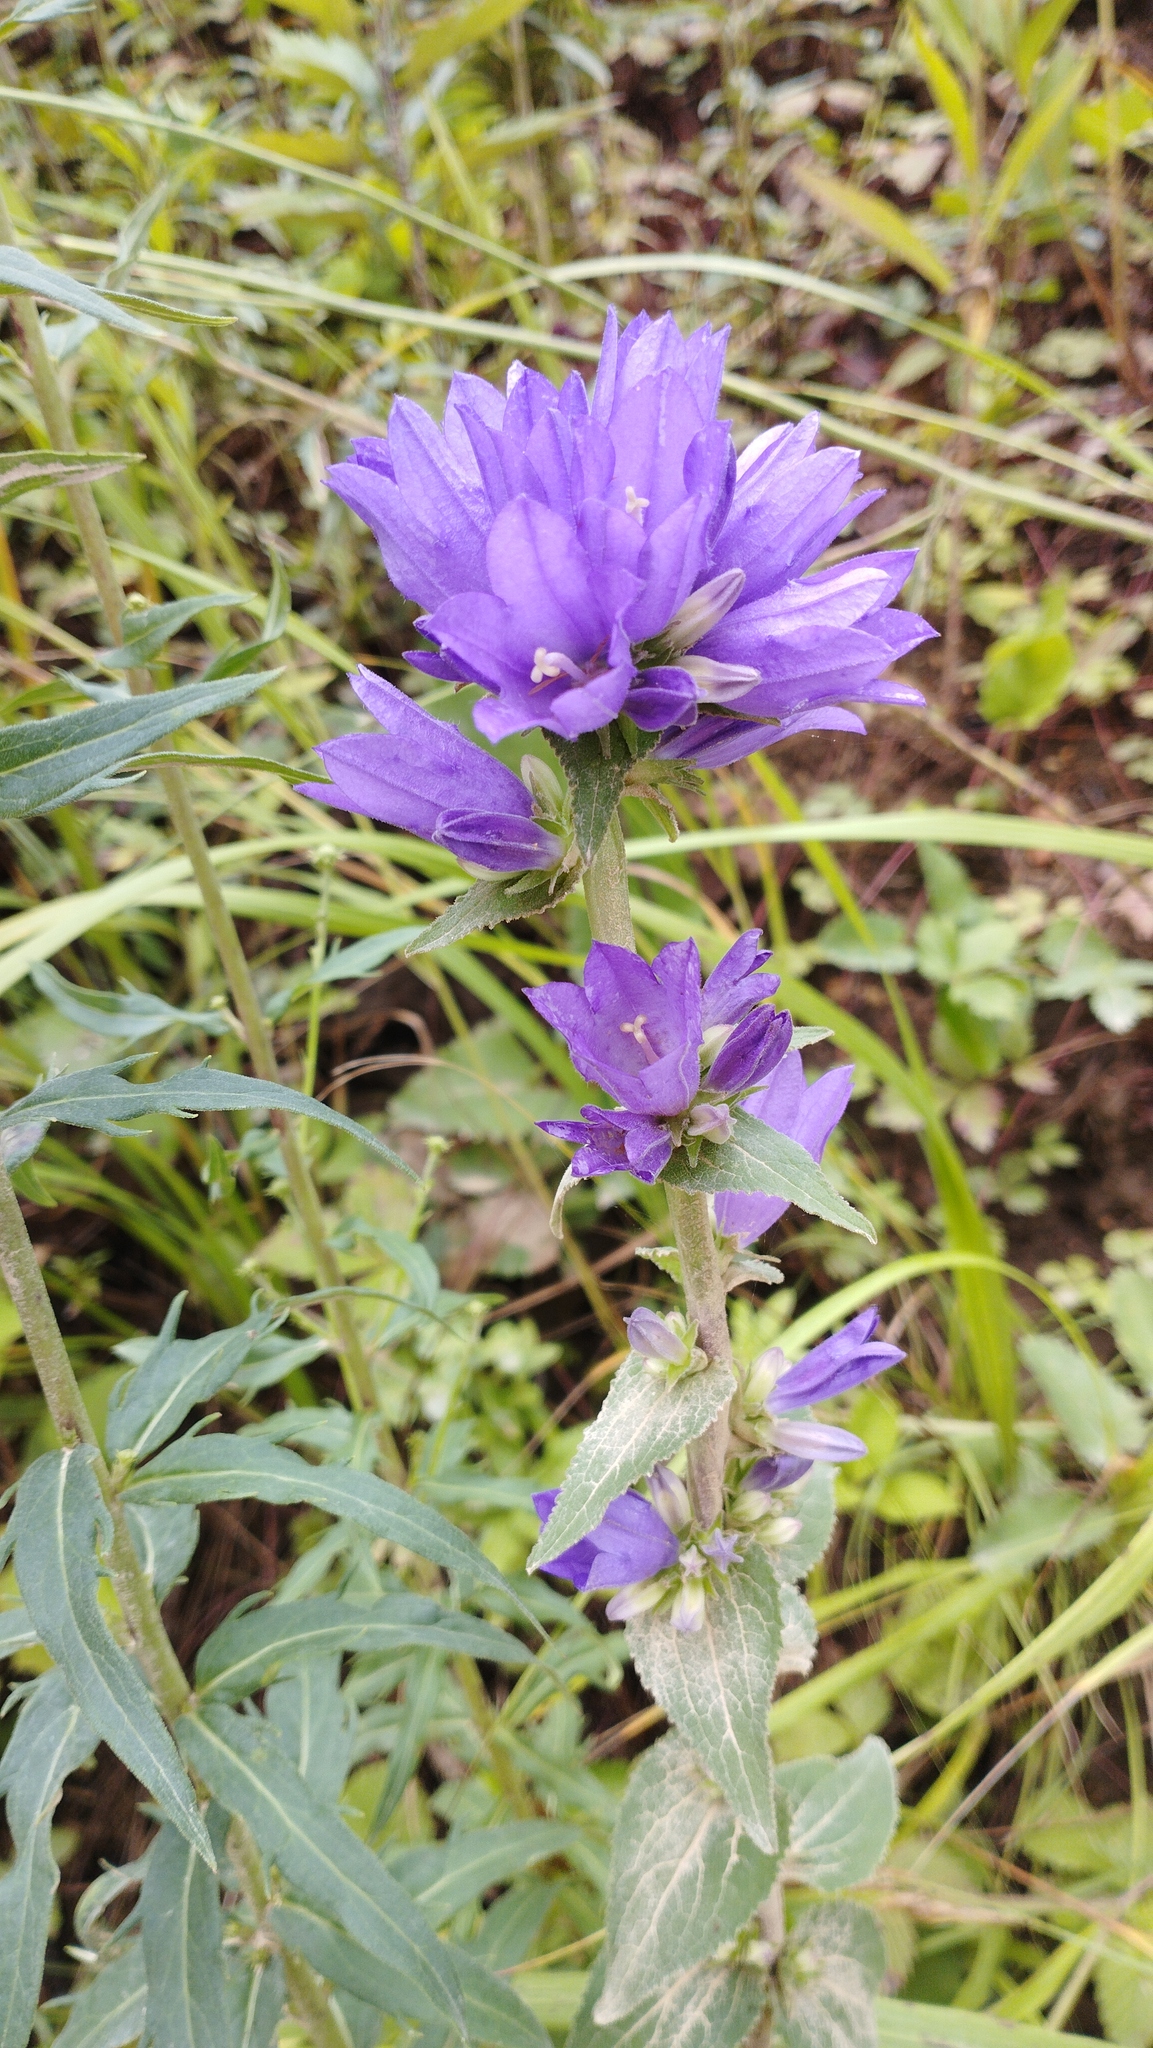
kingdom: Plantae
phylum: Tracheophyta
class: Magnoliopsida
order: Asterales
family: Campanulaceae
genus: Campanula
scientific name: Campanula glomerata
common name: Clustered bellflower
